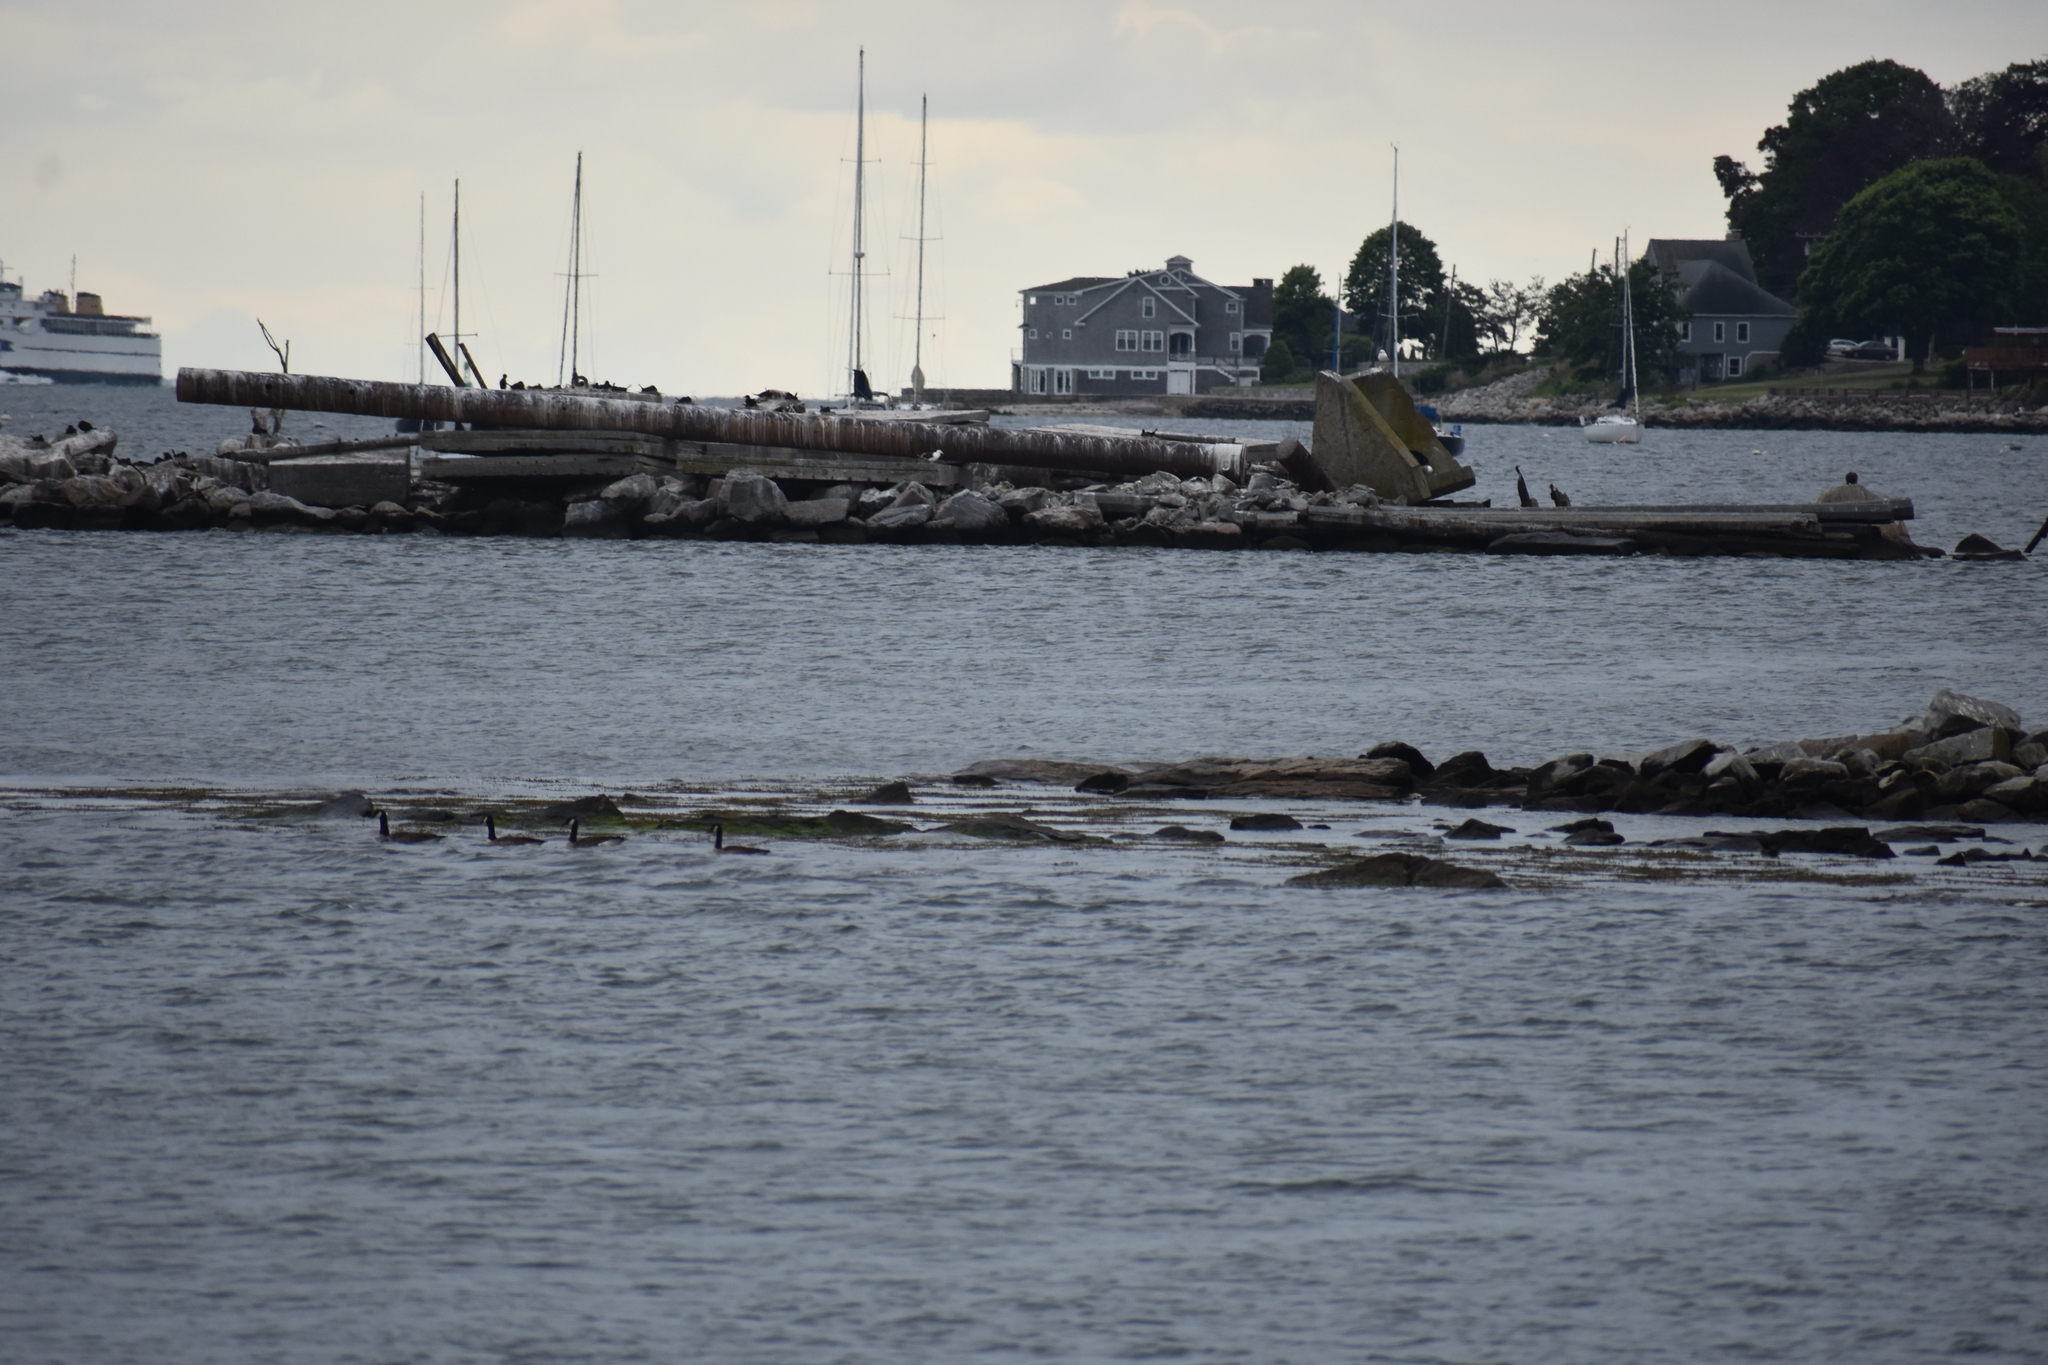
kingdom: Animalia
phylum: Chordata
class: Aves
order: Anseriformes
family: Anatidae
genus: Branta
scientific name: Branta canadensis
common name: Canada goose
